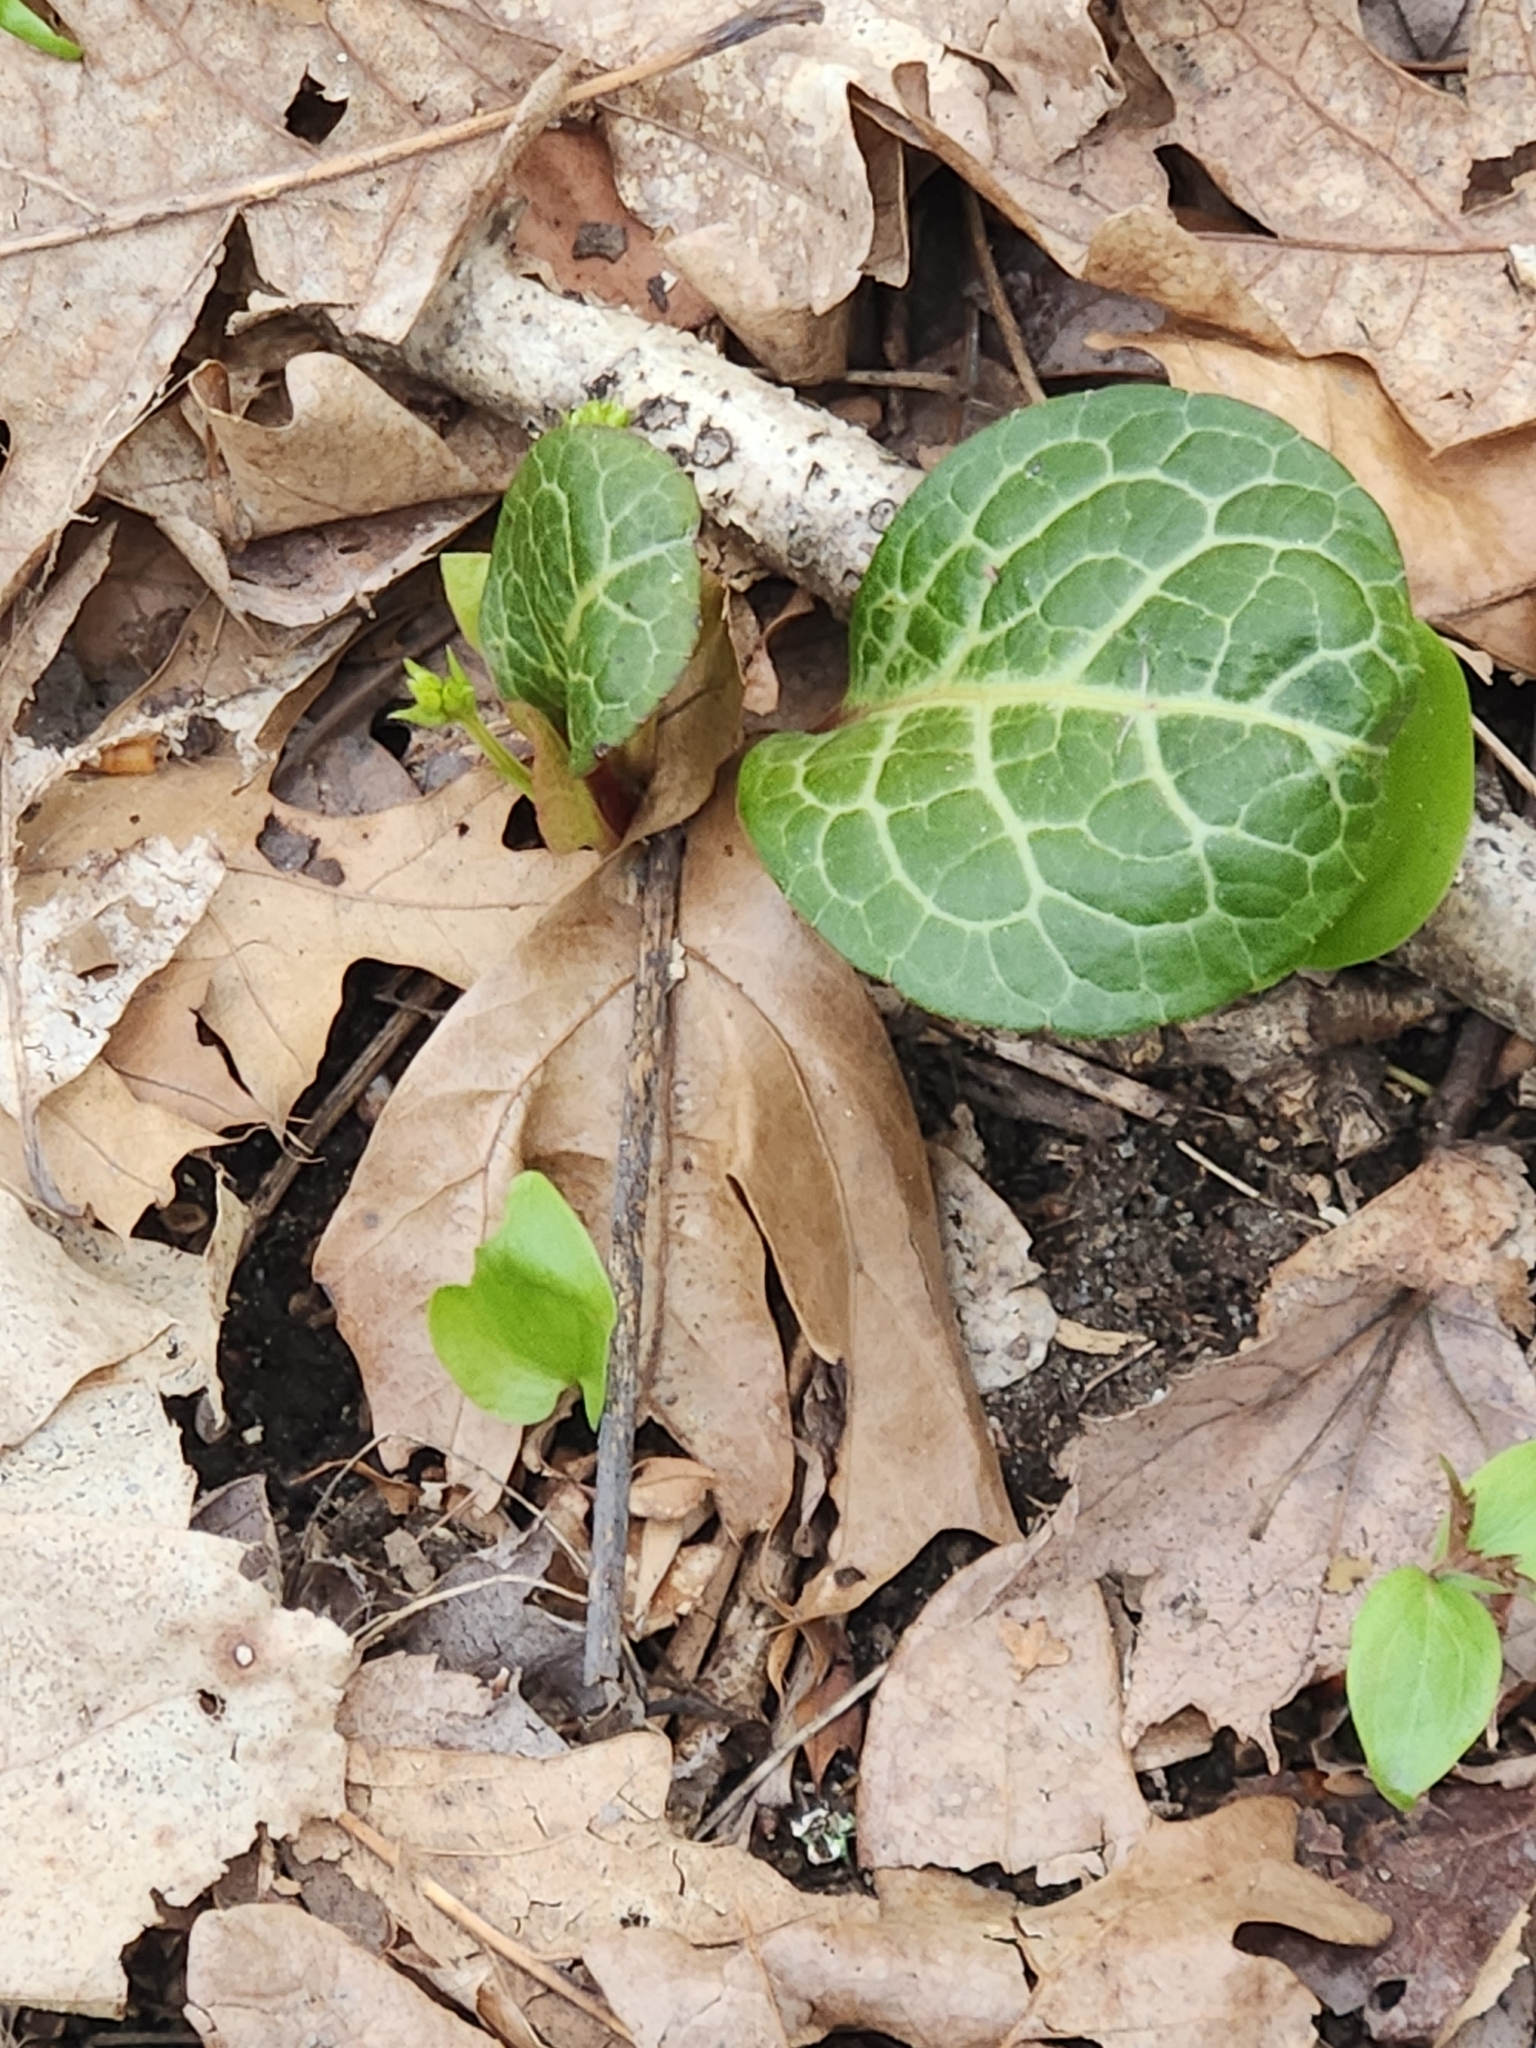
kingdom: Plantae
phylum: Tracheophyta
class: Magnoliopsida
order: Ericales
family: Ericaceae
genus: Pyrola
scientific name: Pyrola americana
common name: American wintergreen
